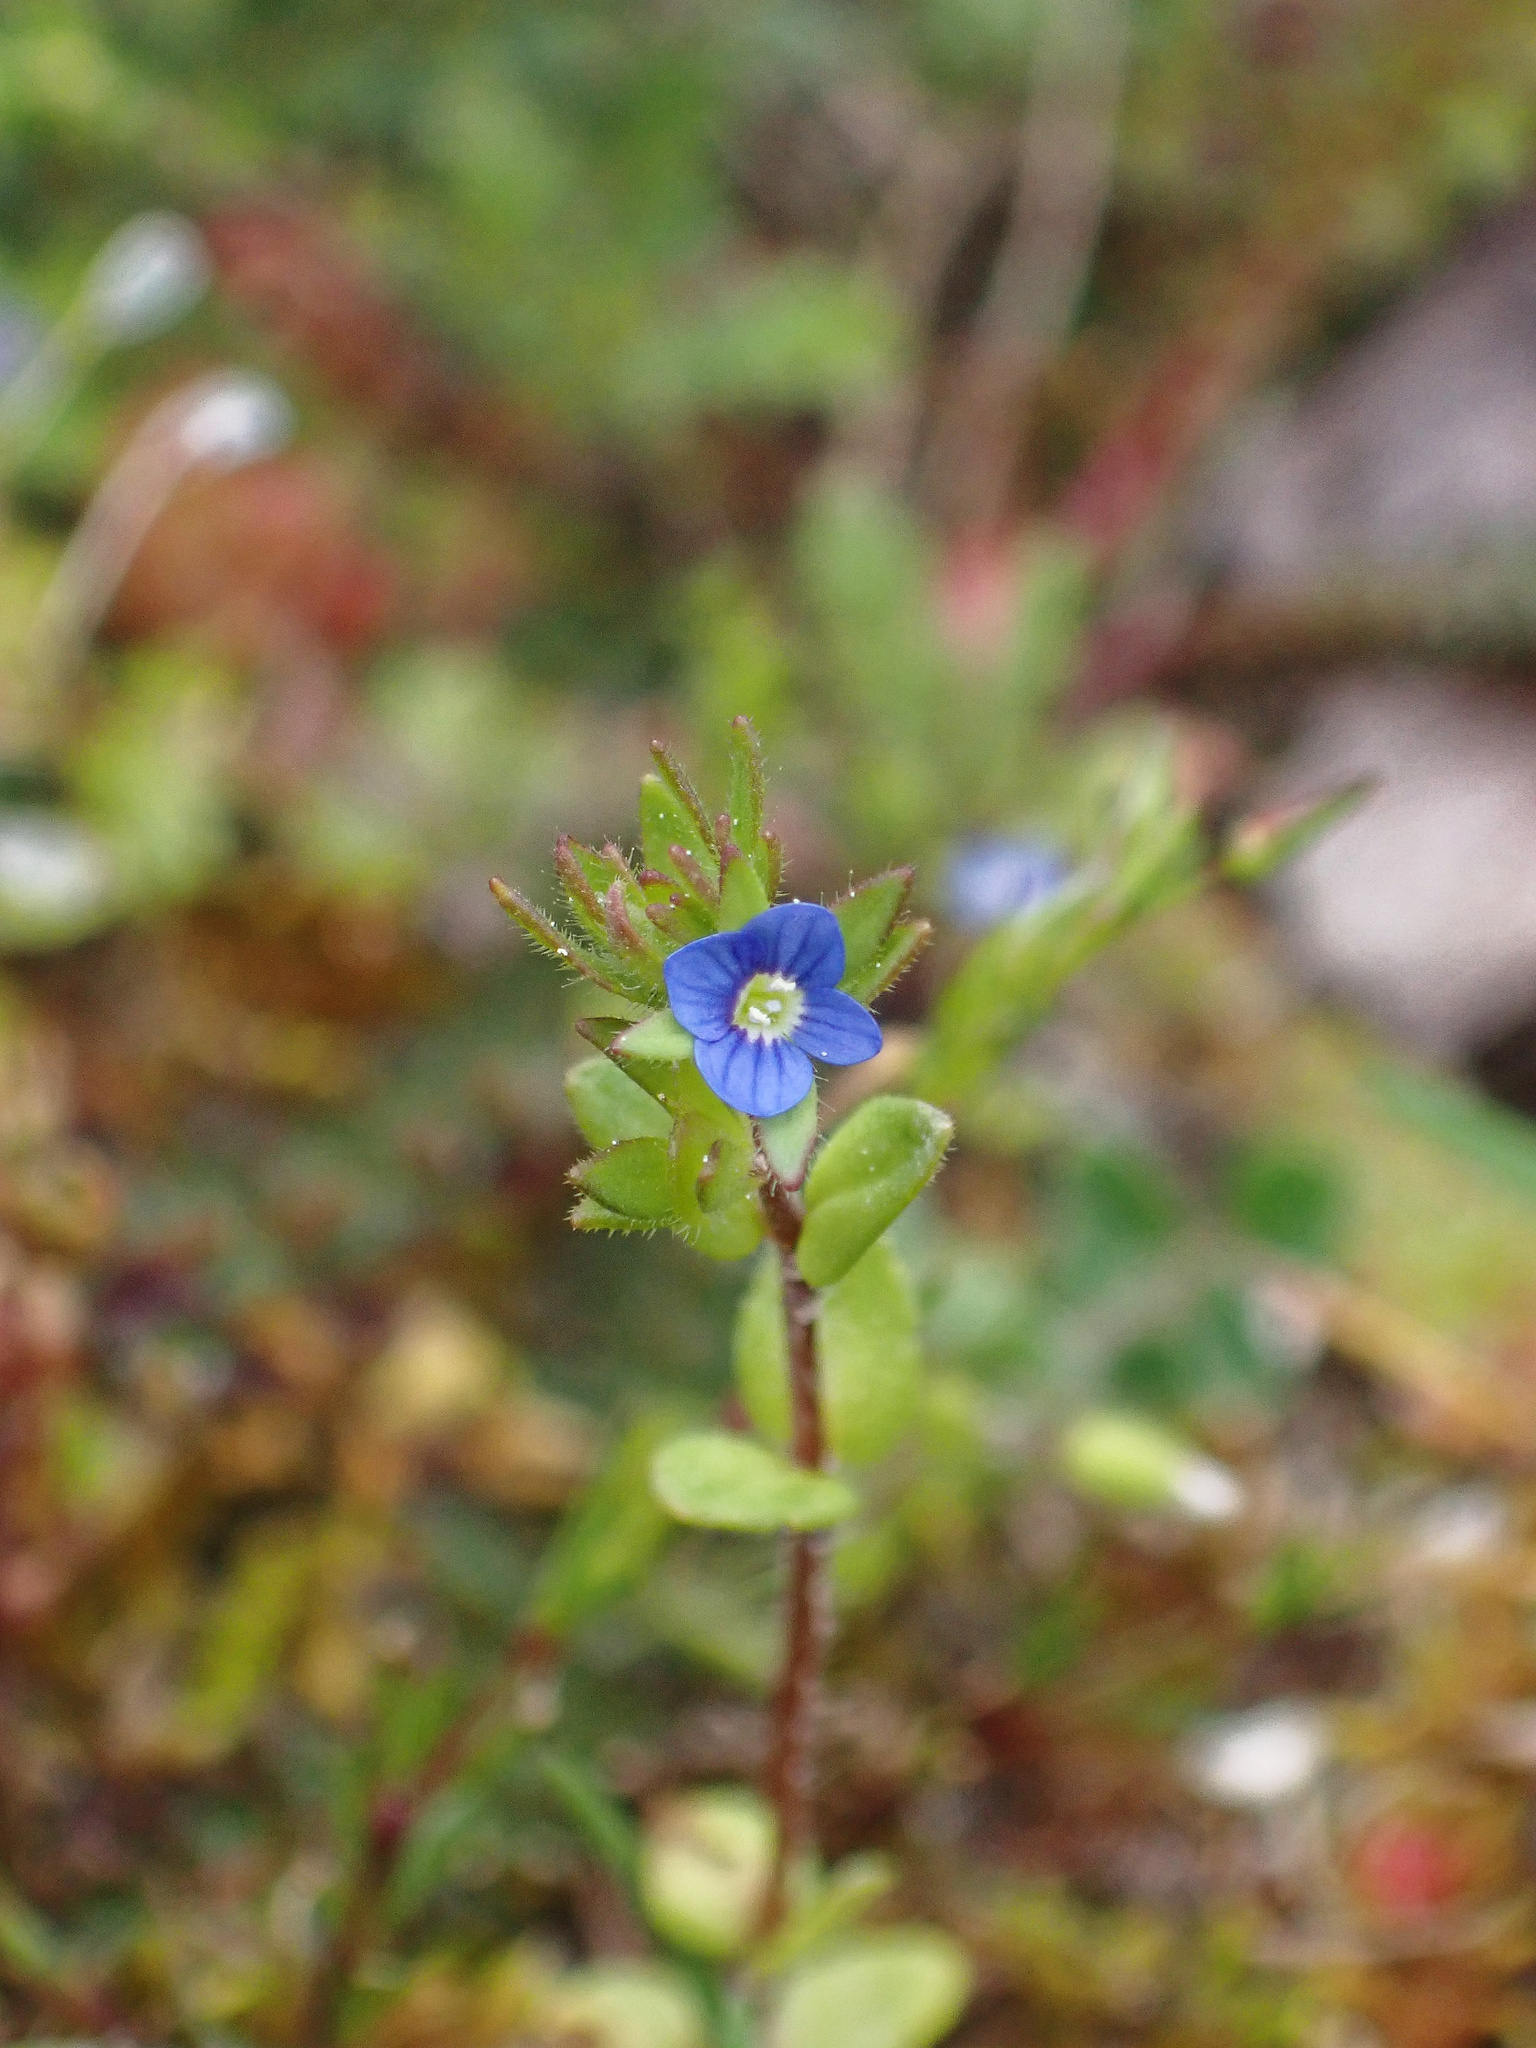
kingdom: Plantae
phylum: Tracheophyta
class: Magnoliopsida
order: Lamiales
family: Plantaginaceae
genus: Veronica
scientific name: Veronica arvensis
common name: Corn speedwell
